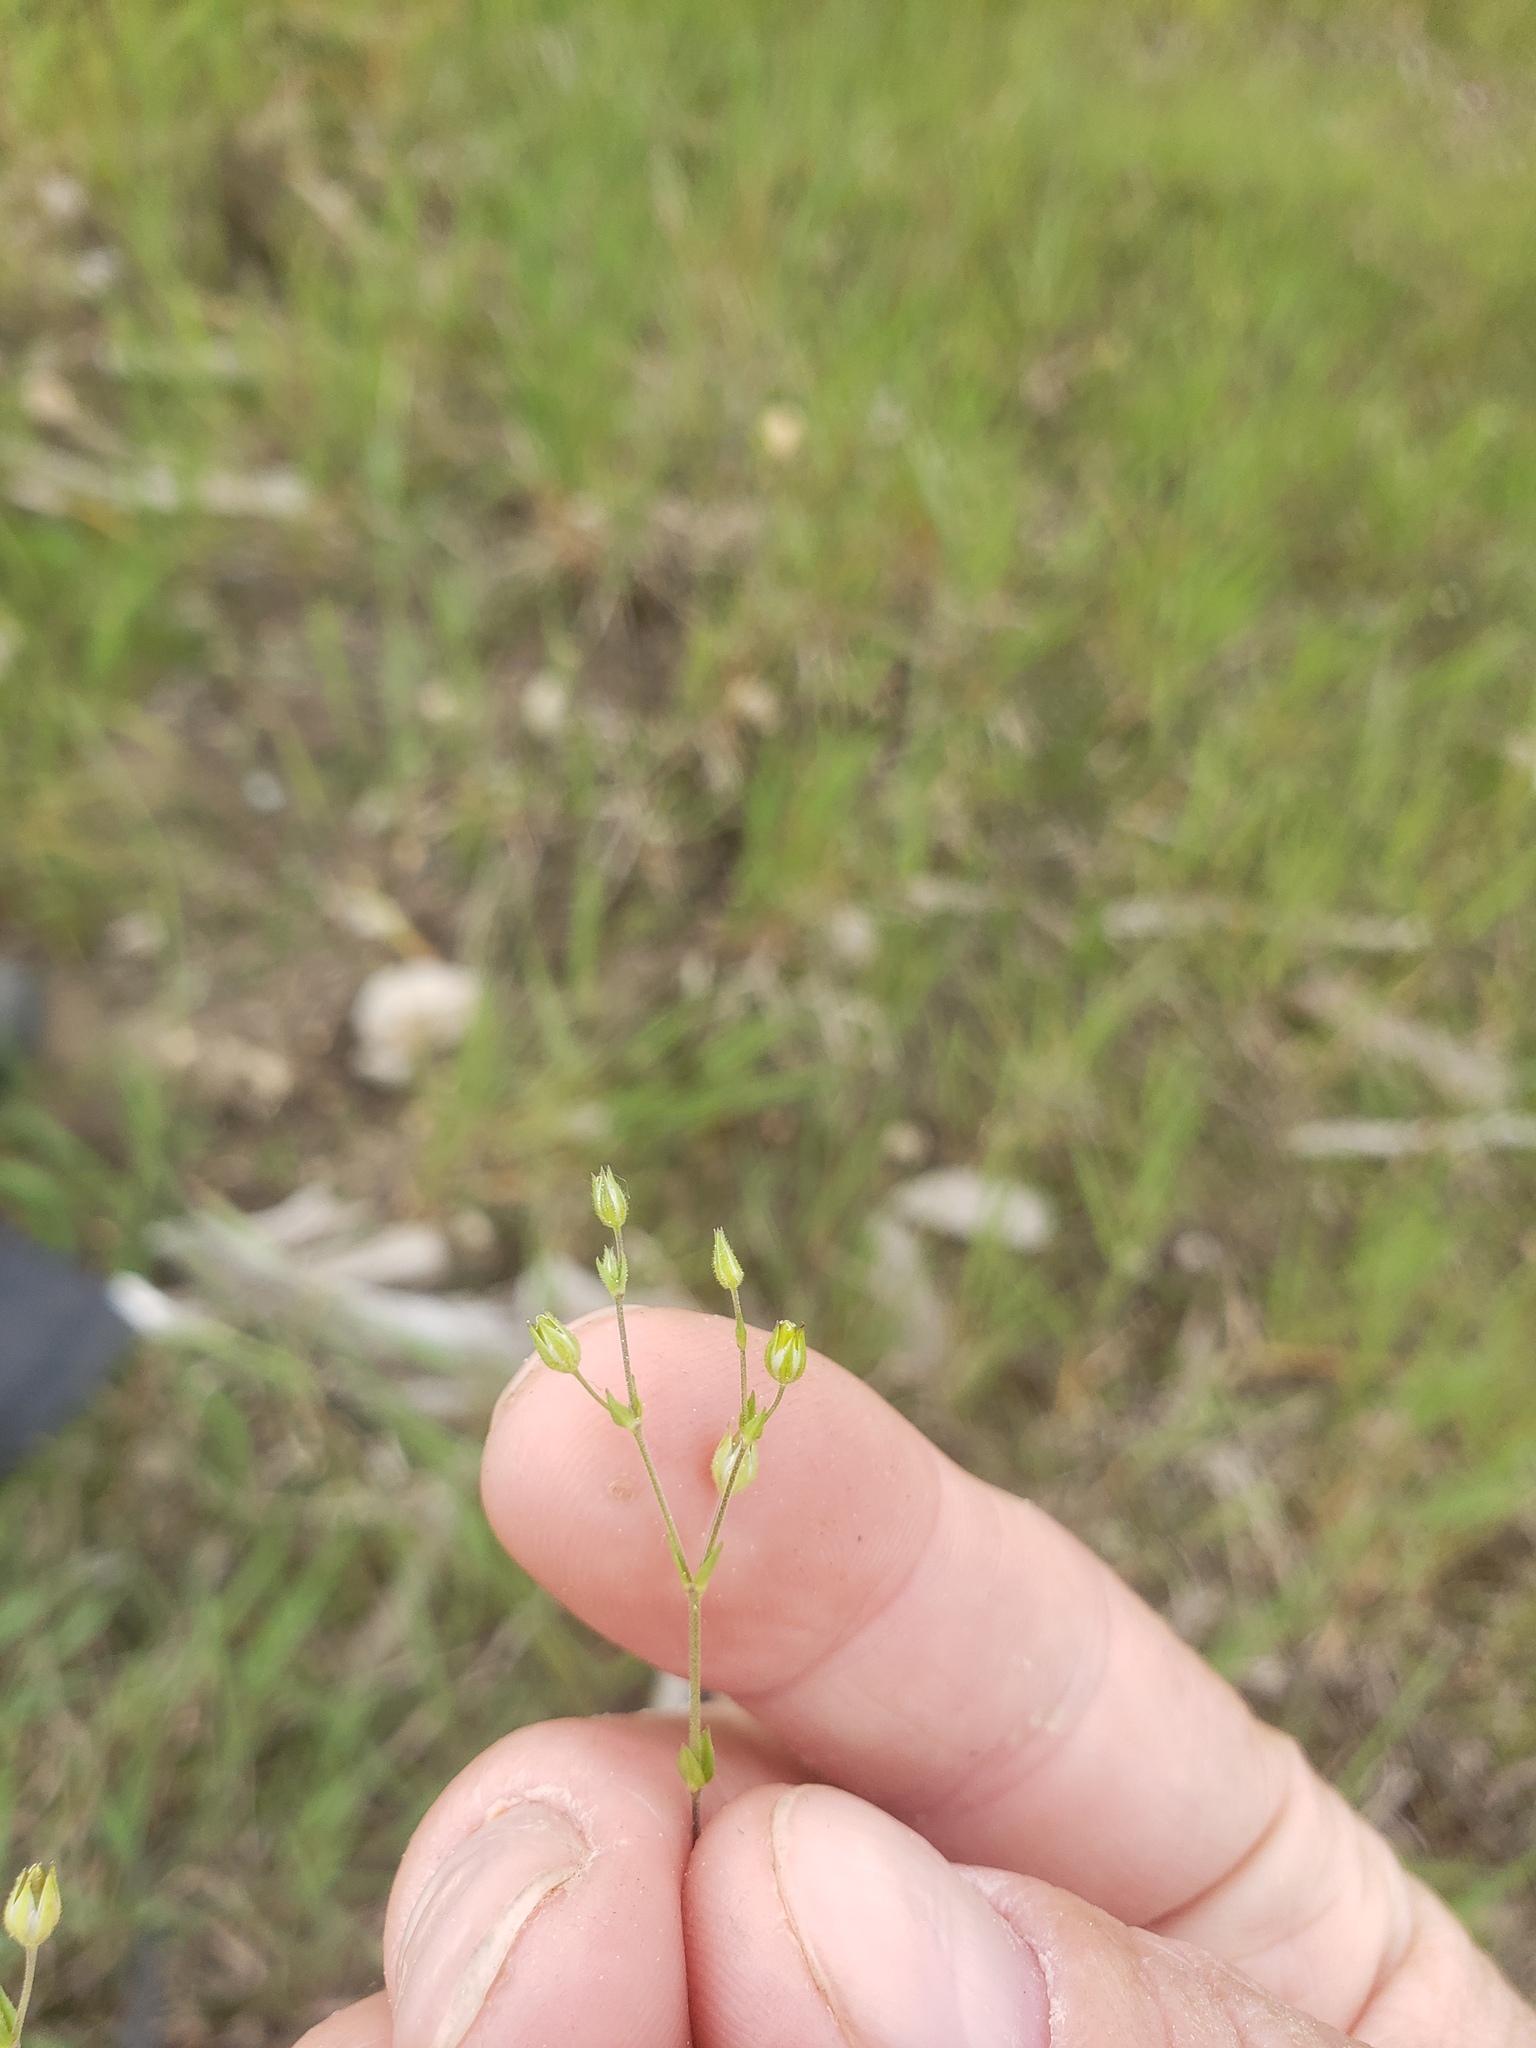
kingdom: Plantae
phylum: Tracheophyta
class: Magnoliopsida
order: Caryophyllales
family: Caryophyllaceae
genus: Arenaria
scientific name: Arenaria serpyllifolia
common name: Thyme-leaved sandwort
